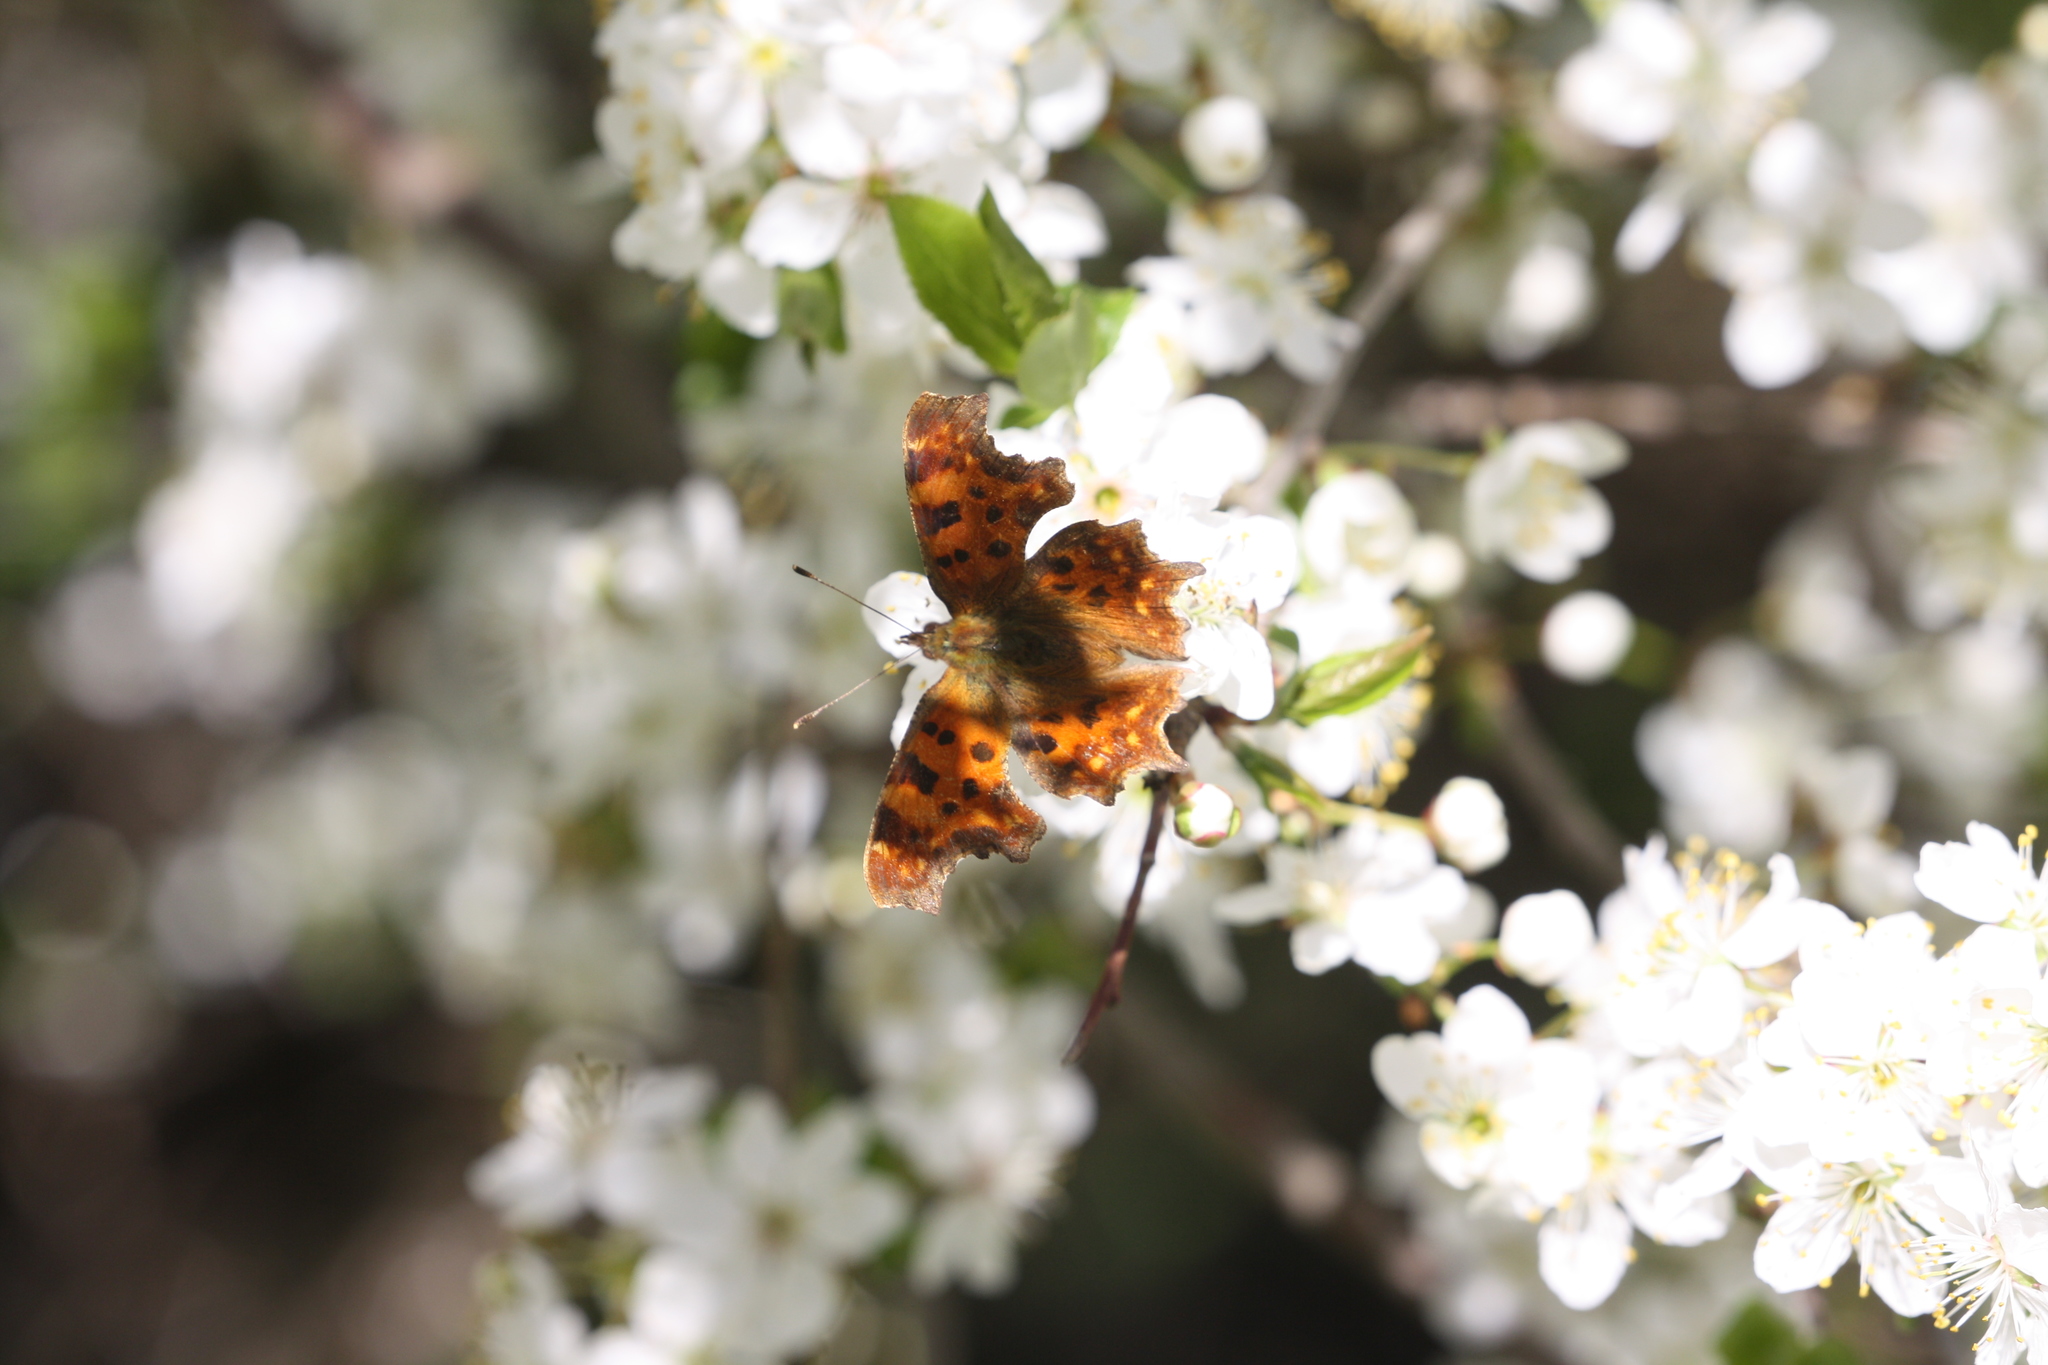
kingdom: Animalia
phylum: Arthropoda
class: Insecta
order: Lepidoptera
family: Nymphalidae
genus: Polygonia
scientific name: Polygonia c-album
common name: Comma
